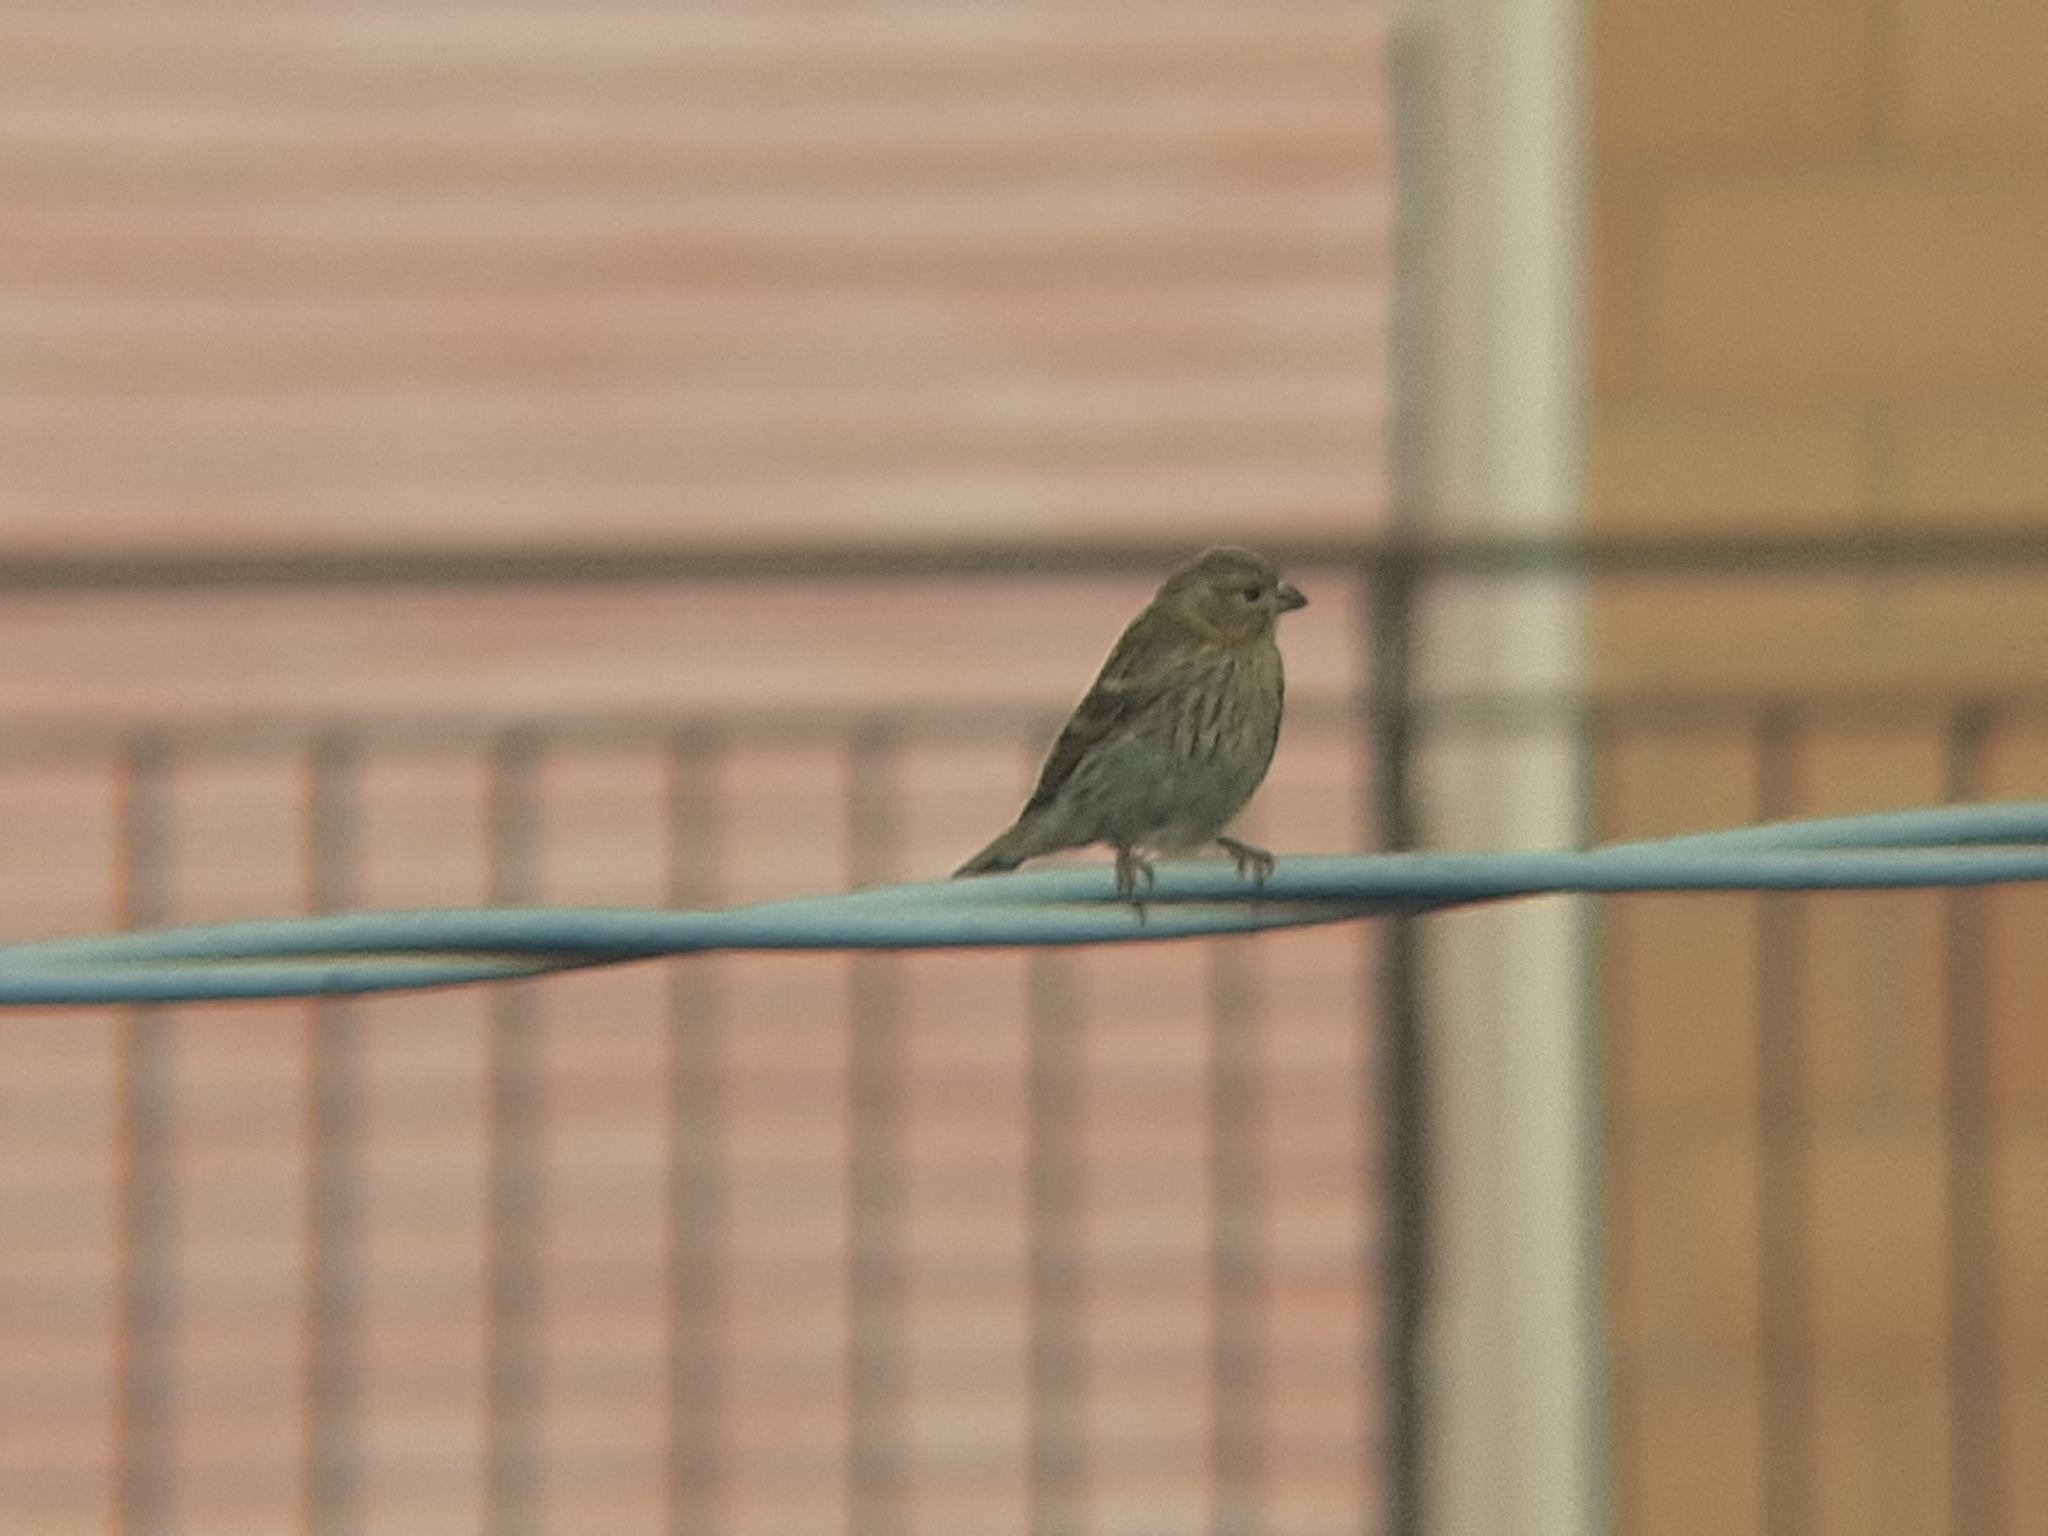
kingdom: Animalia
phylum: Chordata
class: Aves
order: Passeriformes
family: Fringillidae
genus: Serinus
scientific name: Serinus serinus
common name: European serin
